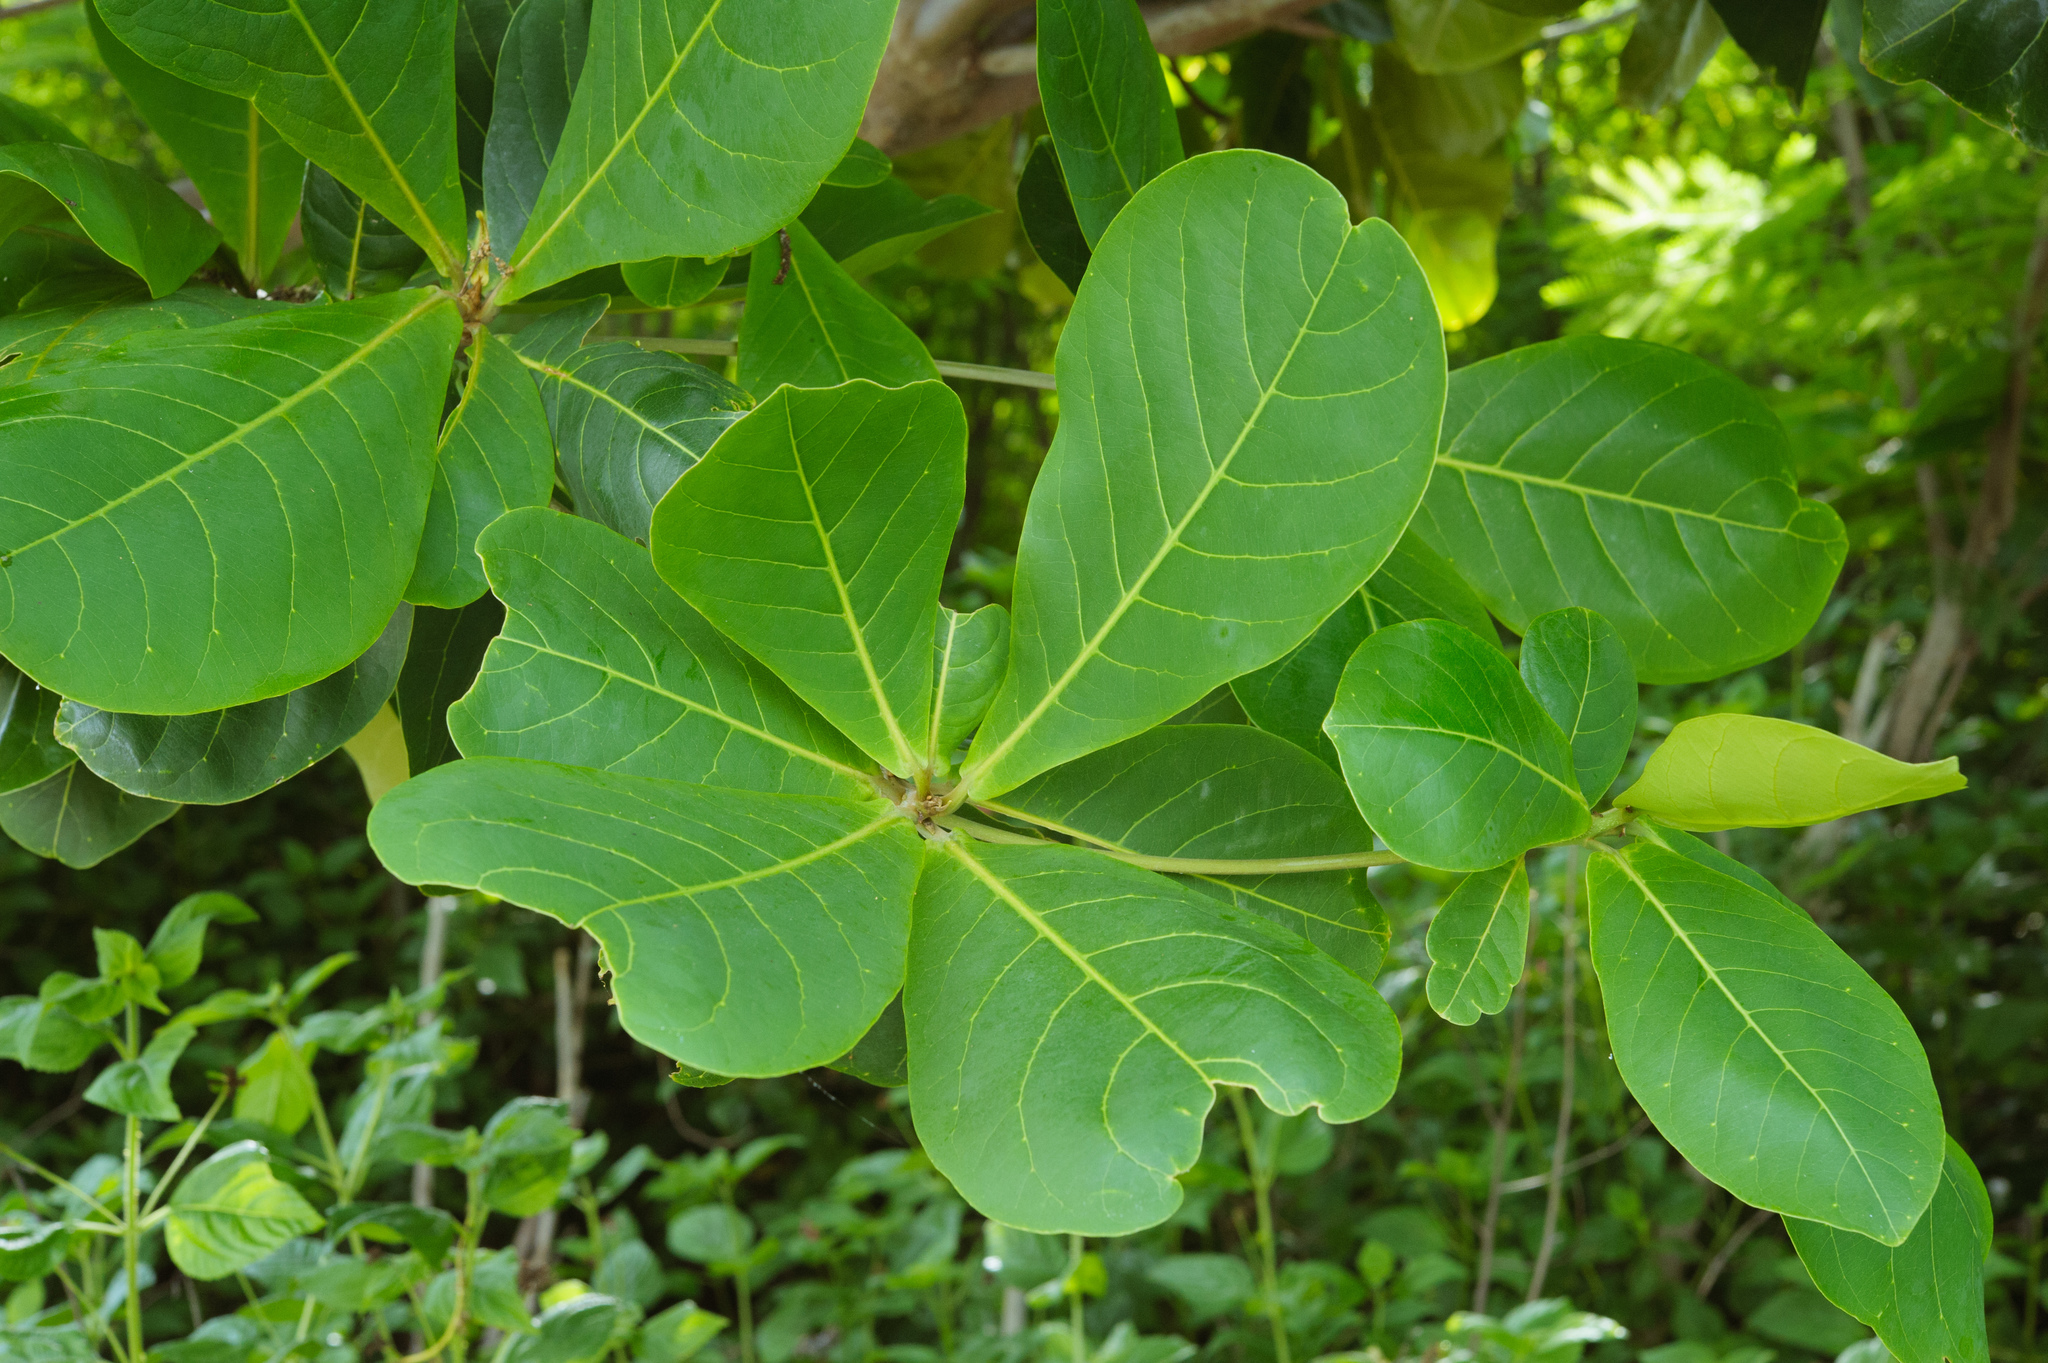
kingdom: Plantae
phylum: Tracheophyta
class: Magnoliopsida
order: Myrtales
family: Combretaceae
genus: Terminalia
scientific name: Terminalia catappa
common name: Tropical almond
